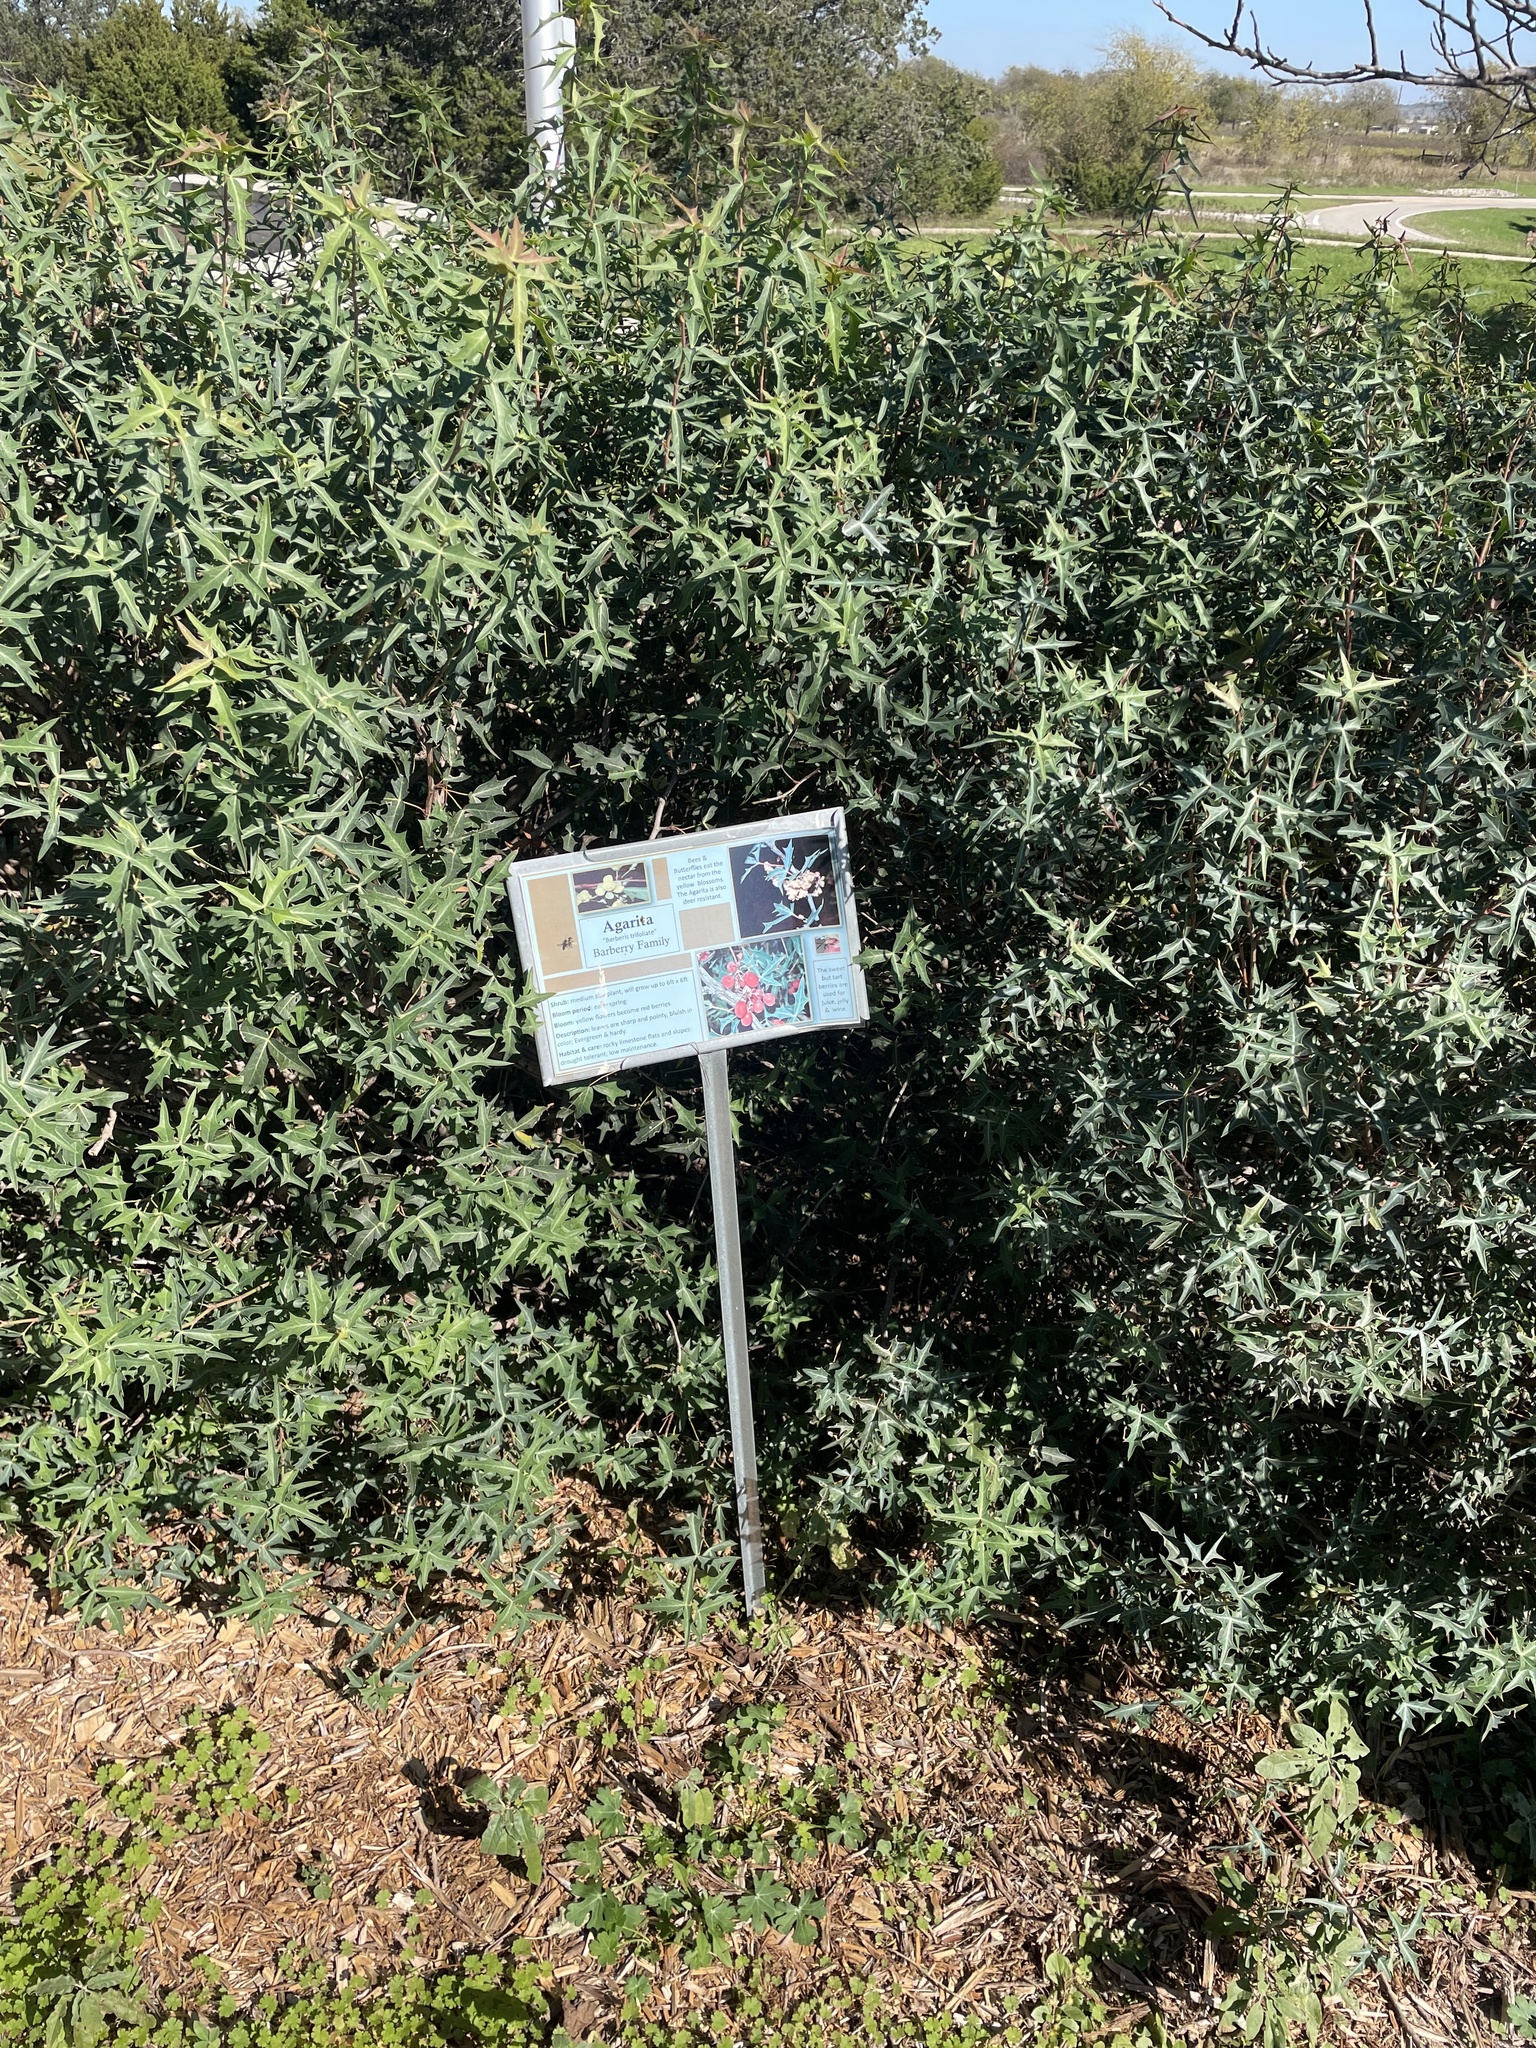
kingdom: Plantae
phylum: Tracheophyta
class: Magnoliopsida
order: Ranunculales
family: Berberidaceae
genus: Alloberberis
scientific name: Alloberberis trifoliolata
